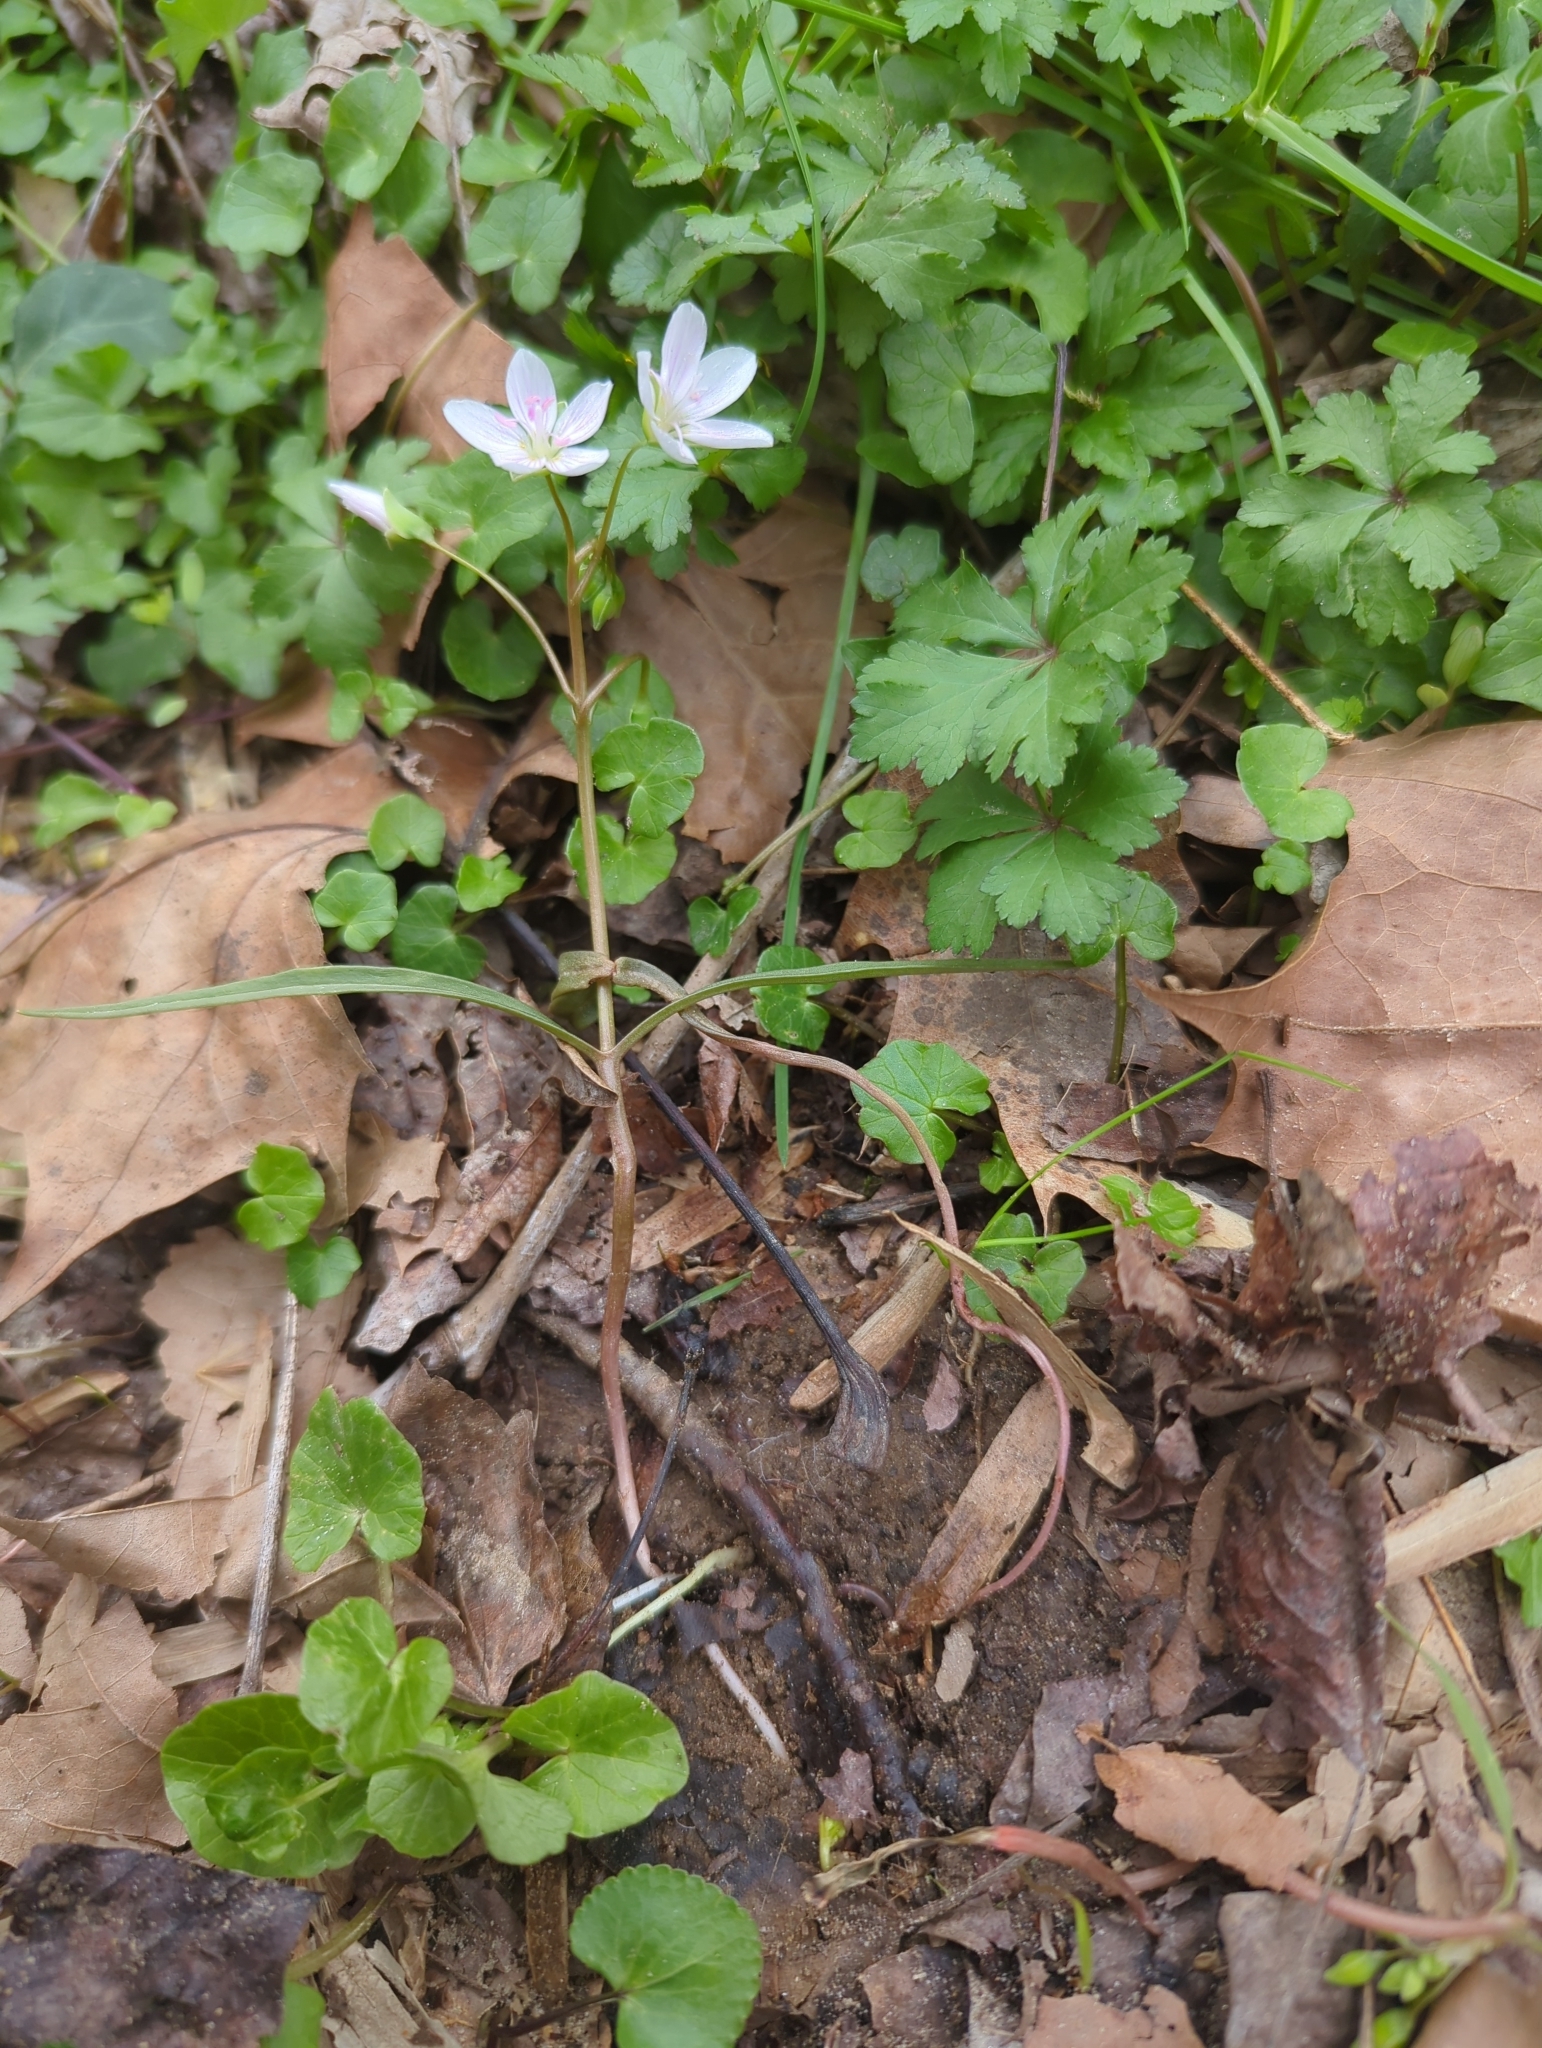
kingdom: Plantae
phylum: Tracheophyta
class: Magnoliopsida
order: Caryophyllales
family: Montiaceae
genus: Claytonia
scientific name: Claytonia virginica
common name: Virginia springbeauty
